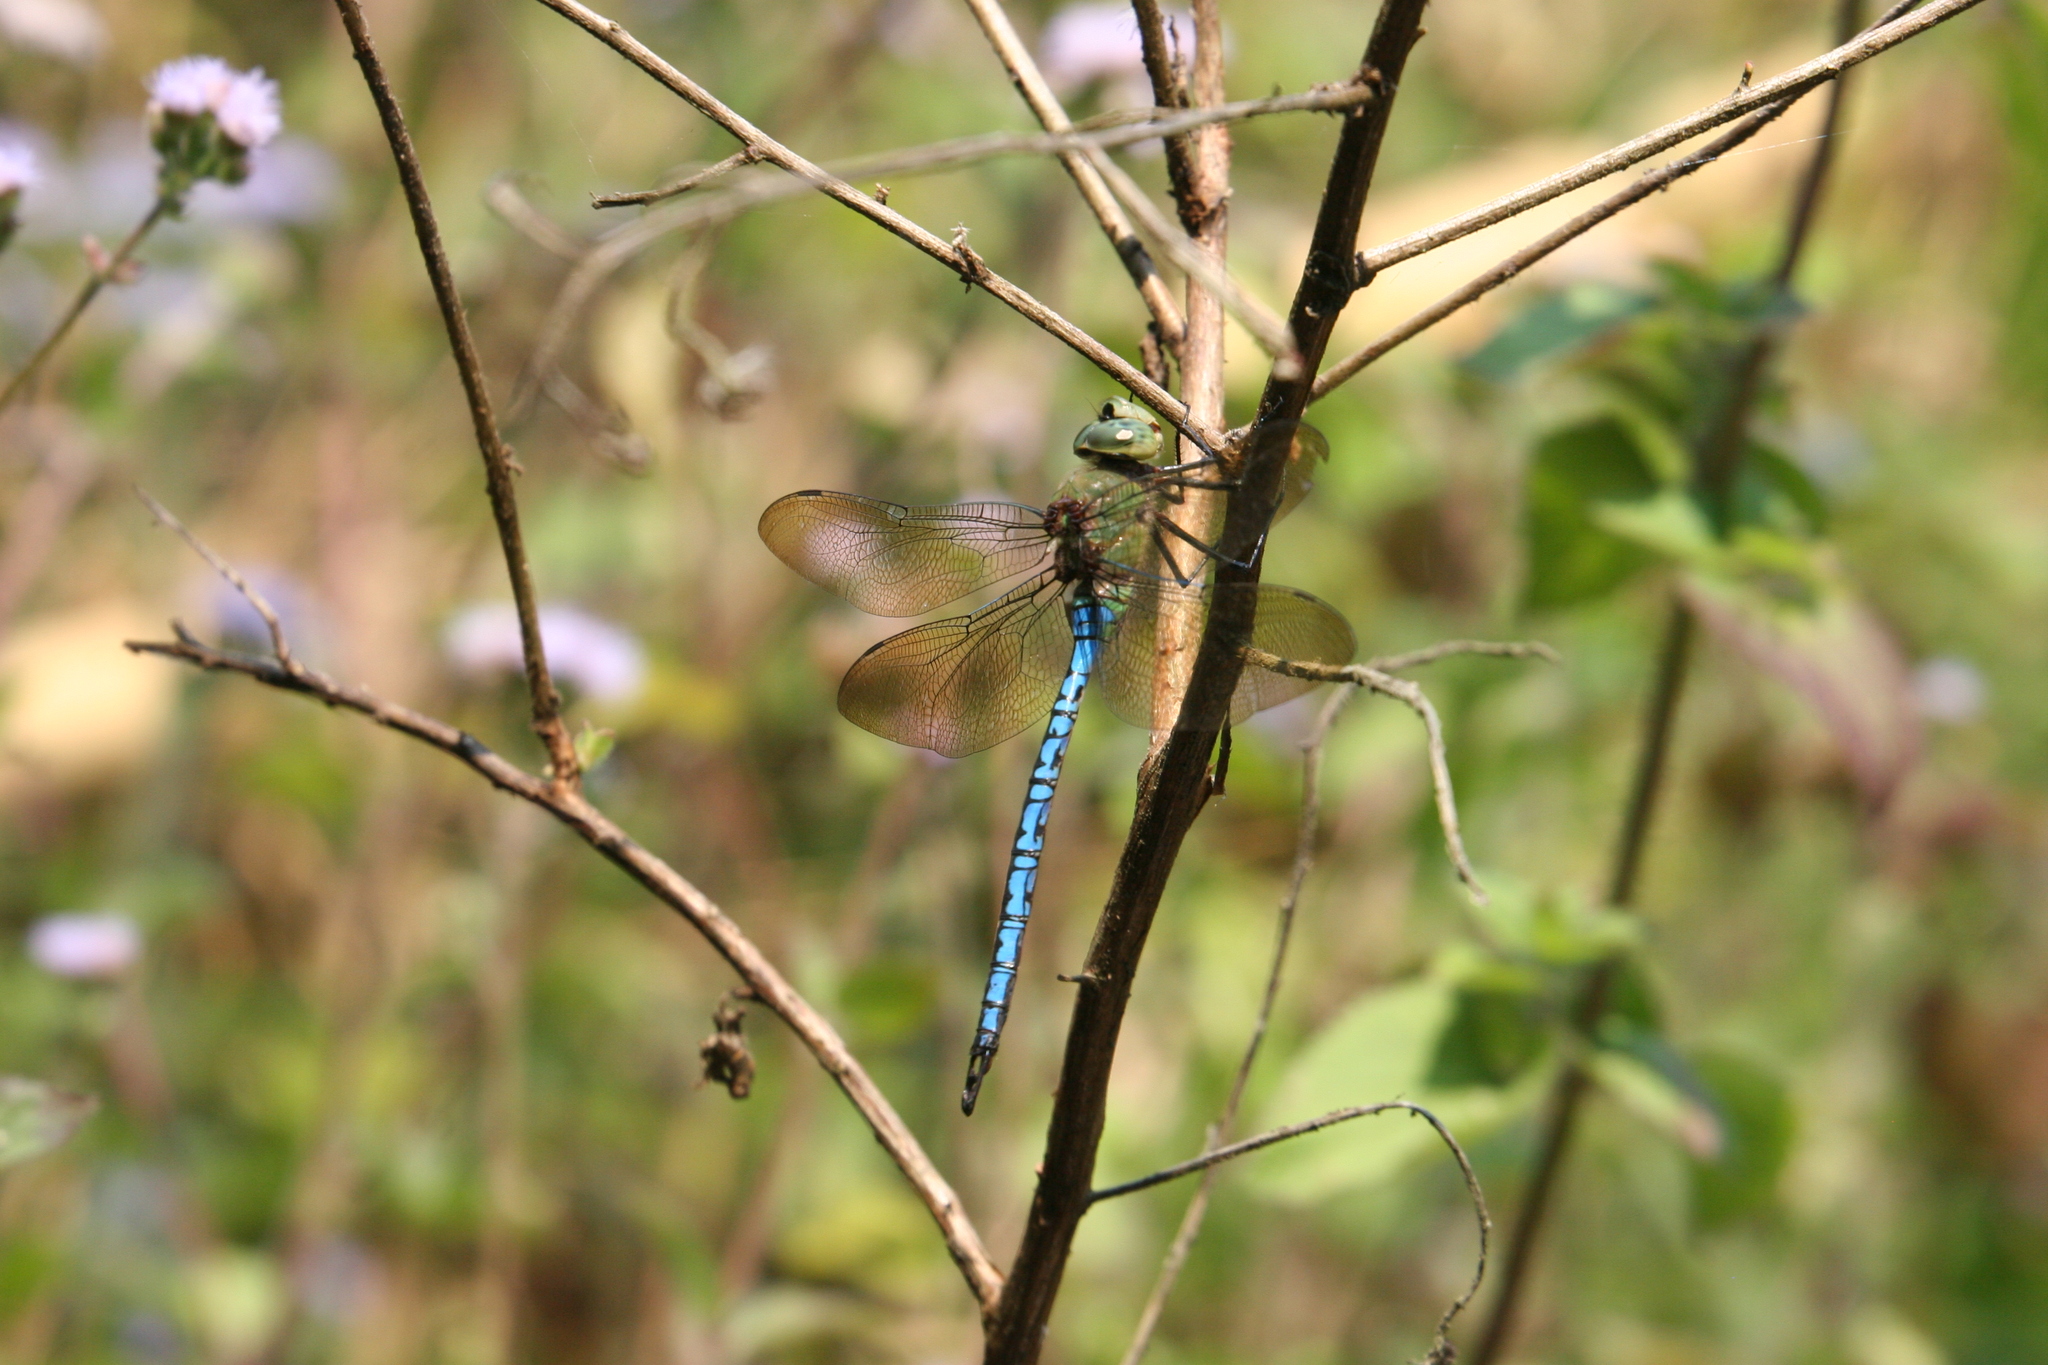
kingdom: Animalia
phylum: Arthropoda
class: Insecta
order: Odonata
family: Aeshnidae
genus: Anax
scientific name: Anax tumorifer
